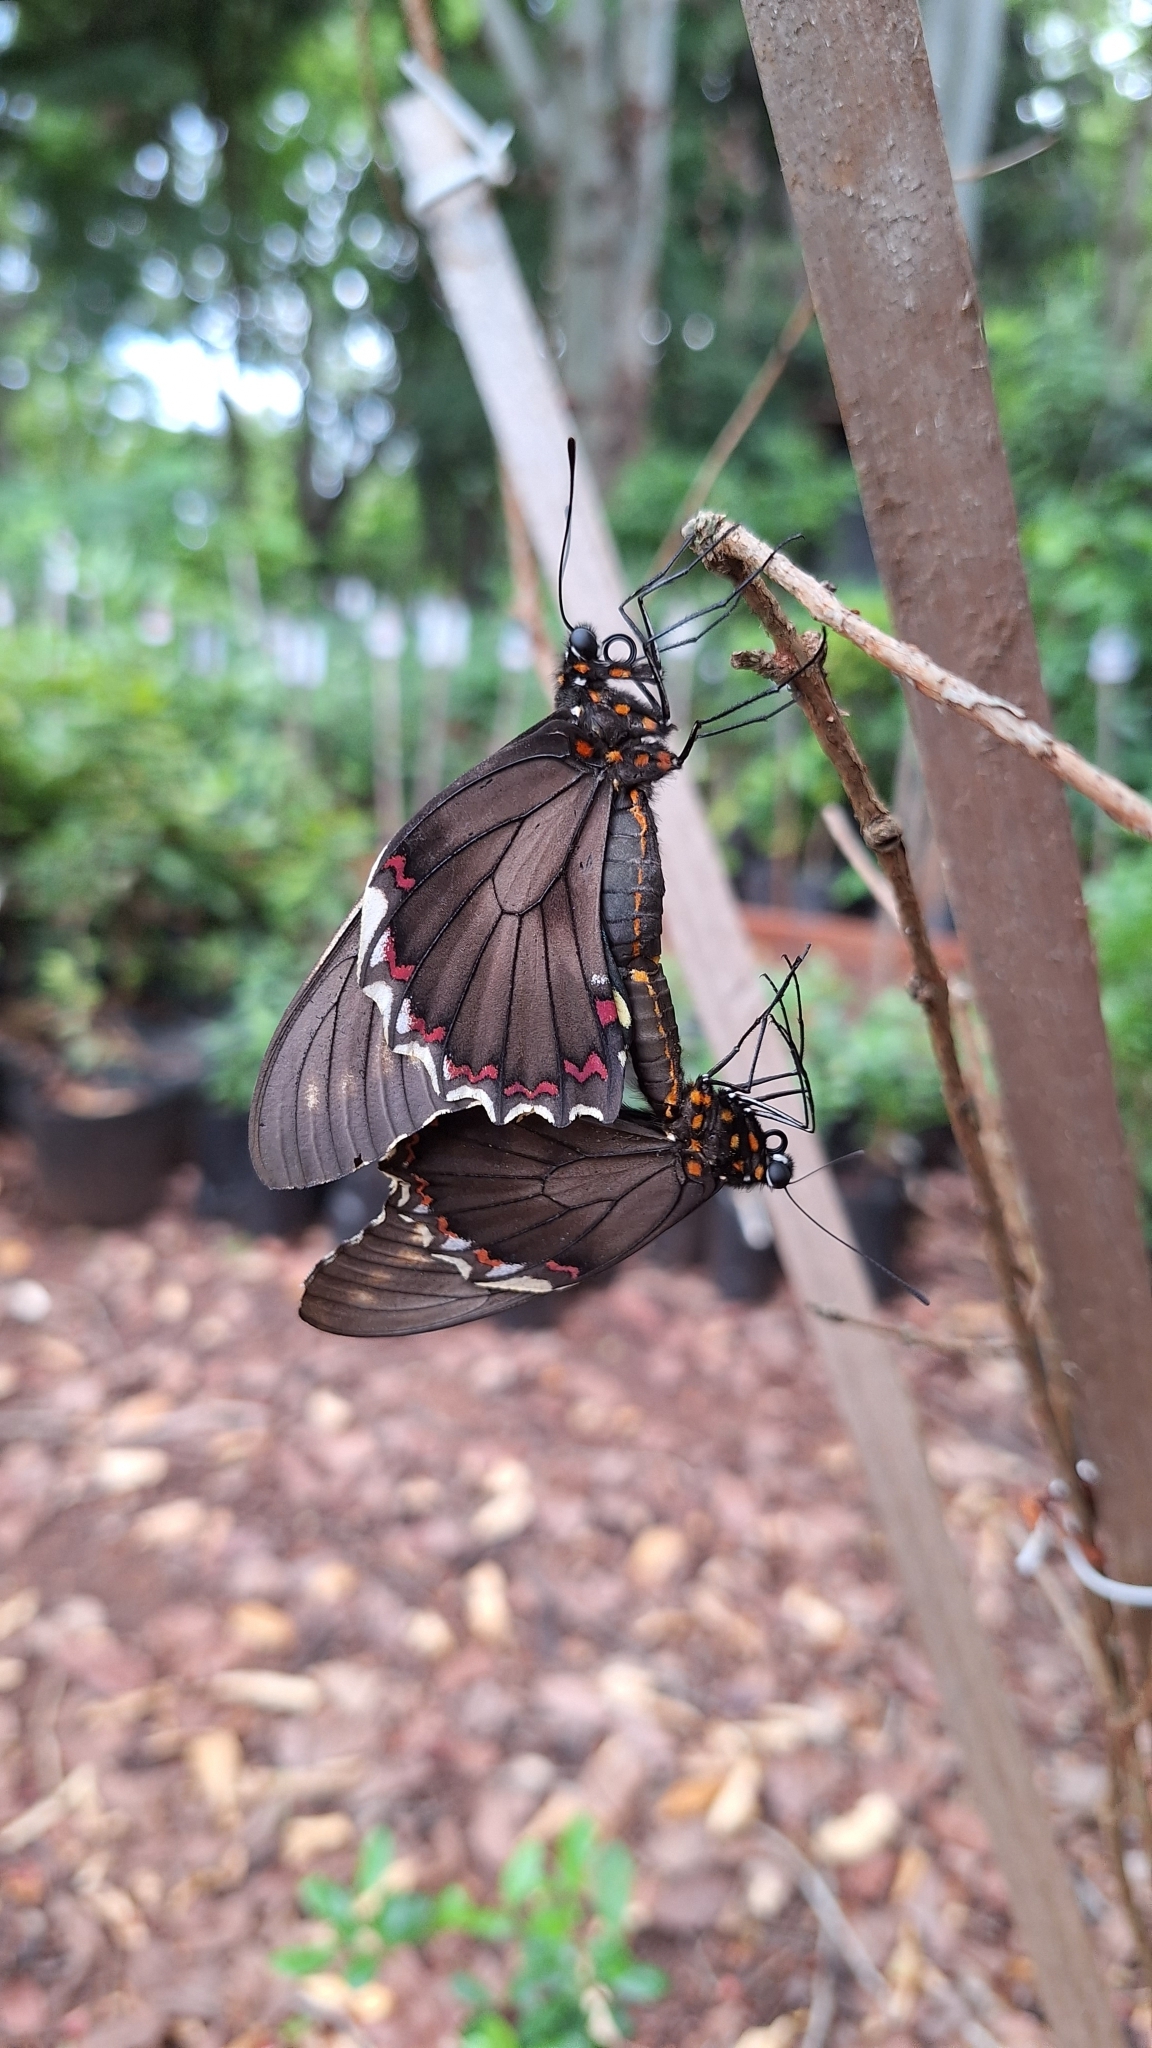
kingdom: Animalia
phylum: Arthropoda
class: Insecta
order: Lepidoptera
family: Papilionidae
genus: Battus
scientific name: Battus polydamas
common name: Polydamas swallowtail
